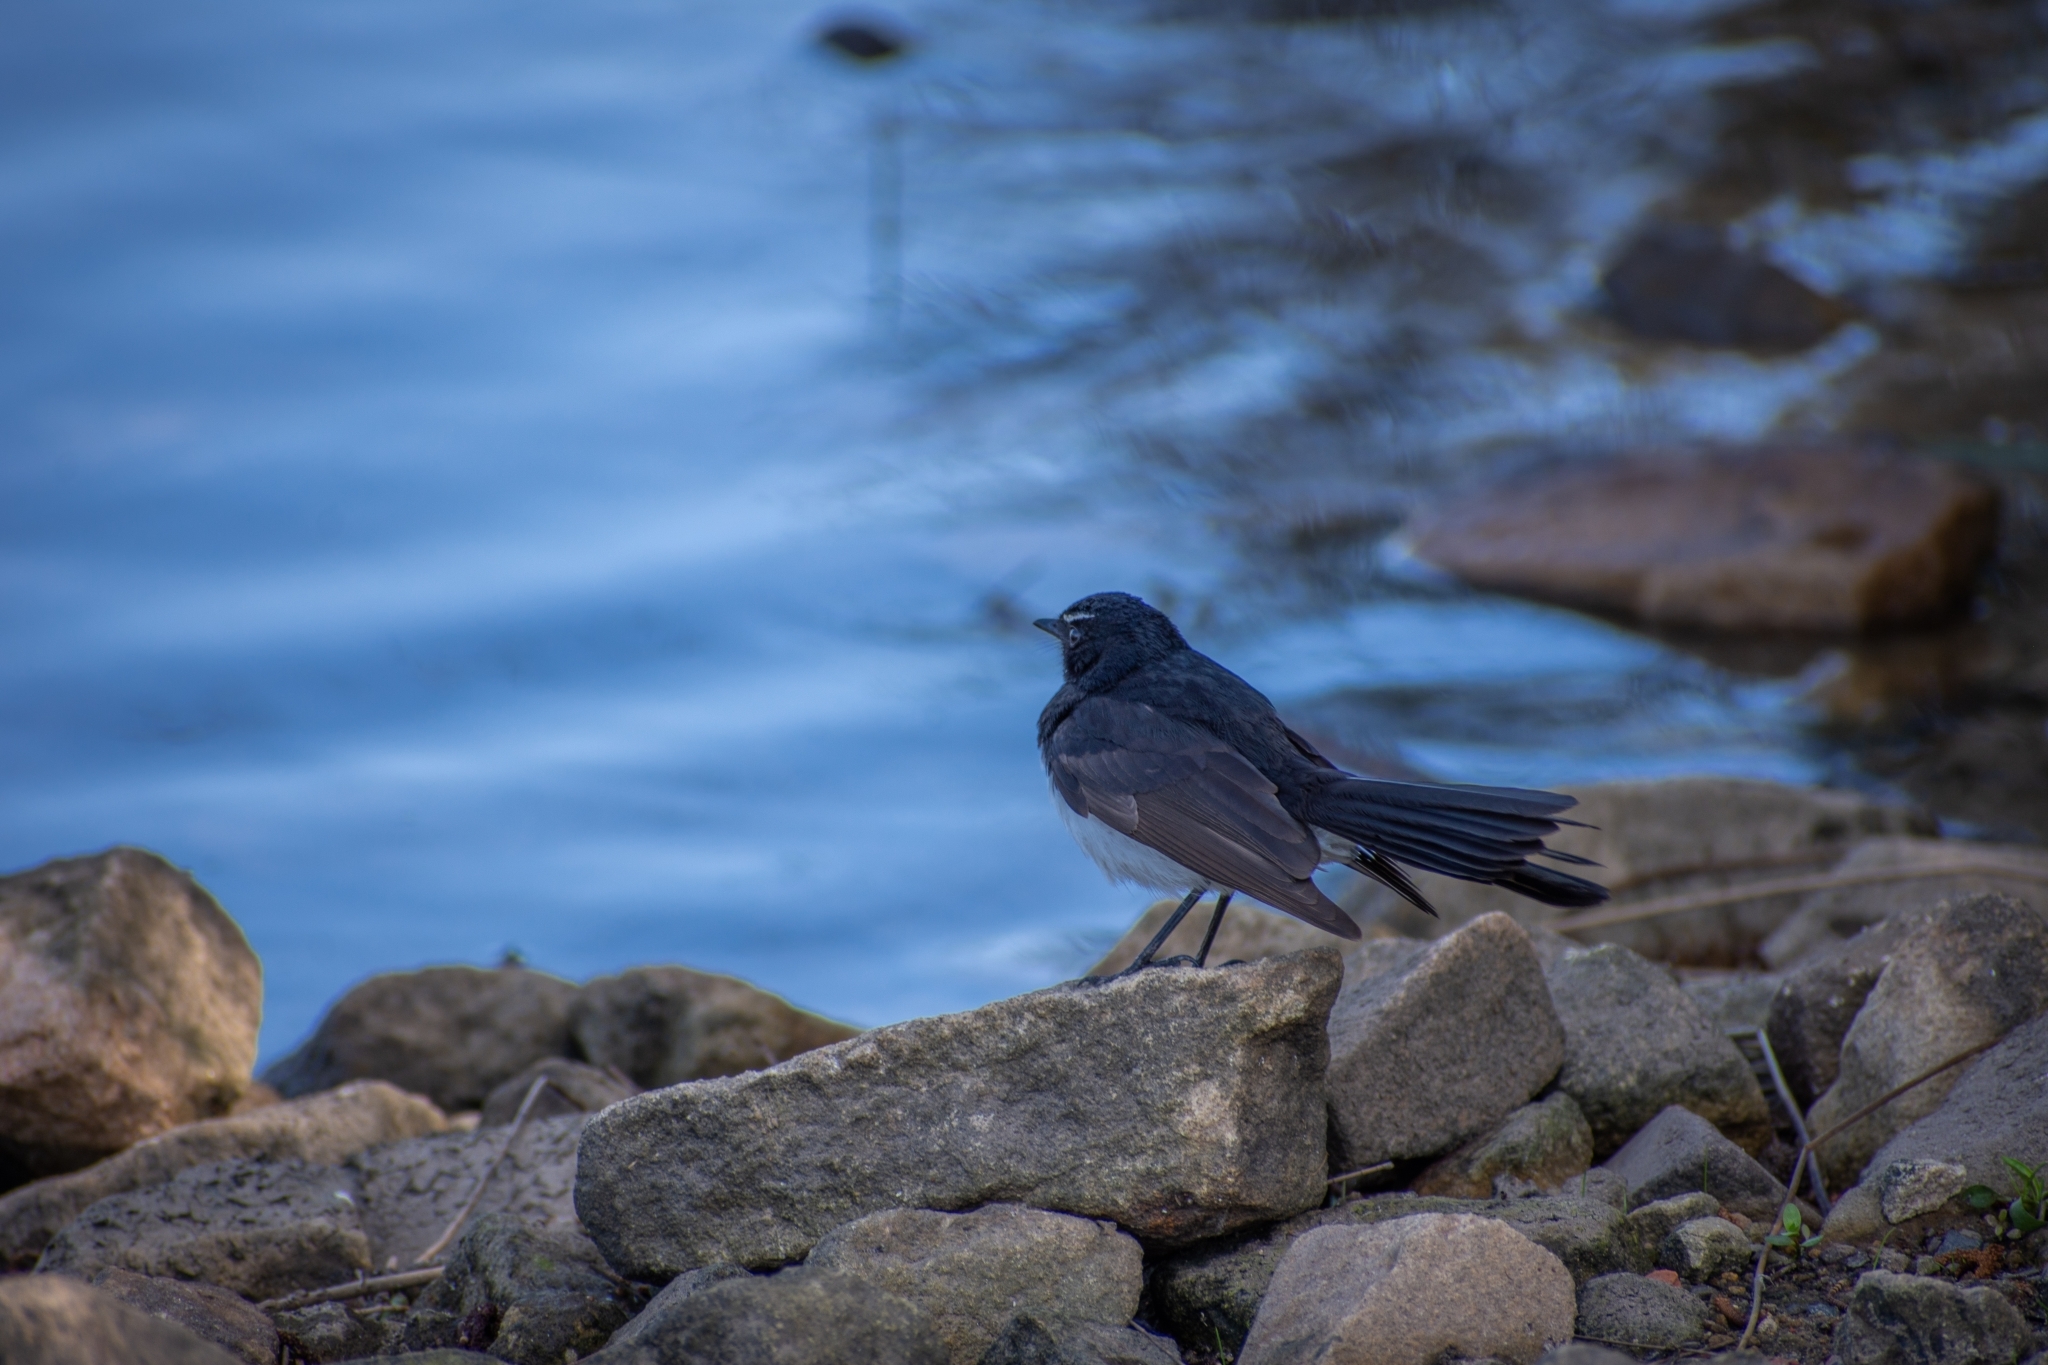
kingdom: Animalia
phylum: Chordata
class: Aves
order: Passeriformes
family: Rhipiduridae
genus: Rhipidura
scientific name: Rhipidura leucophrys
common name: Willie wagtail
